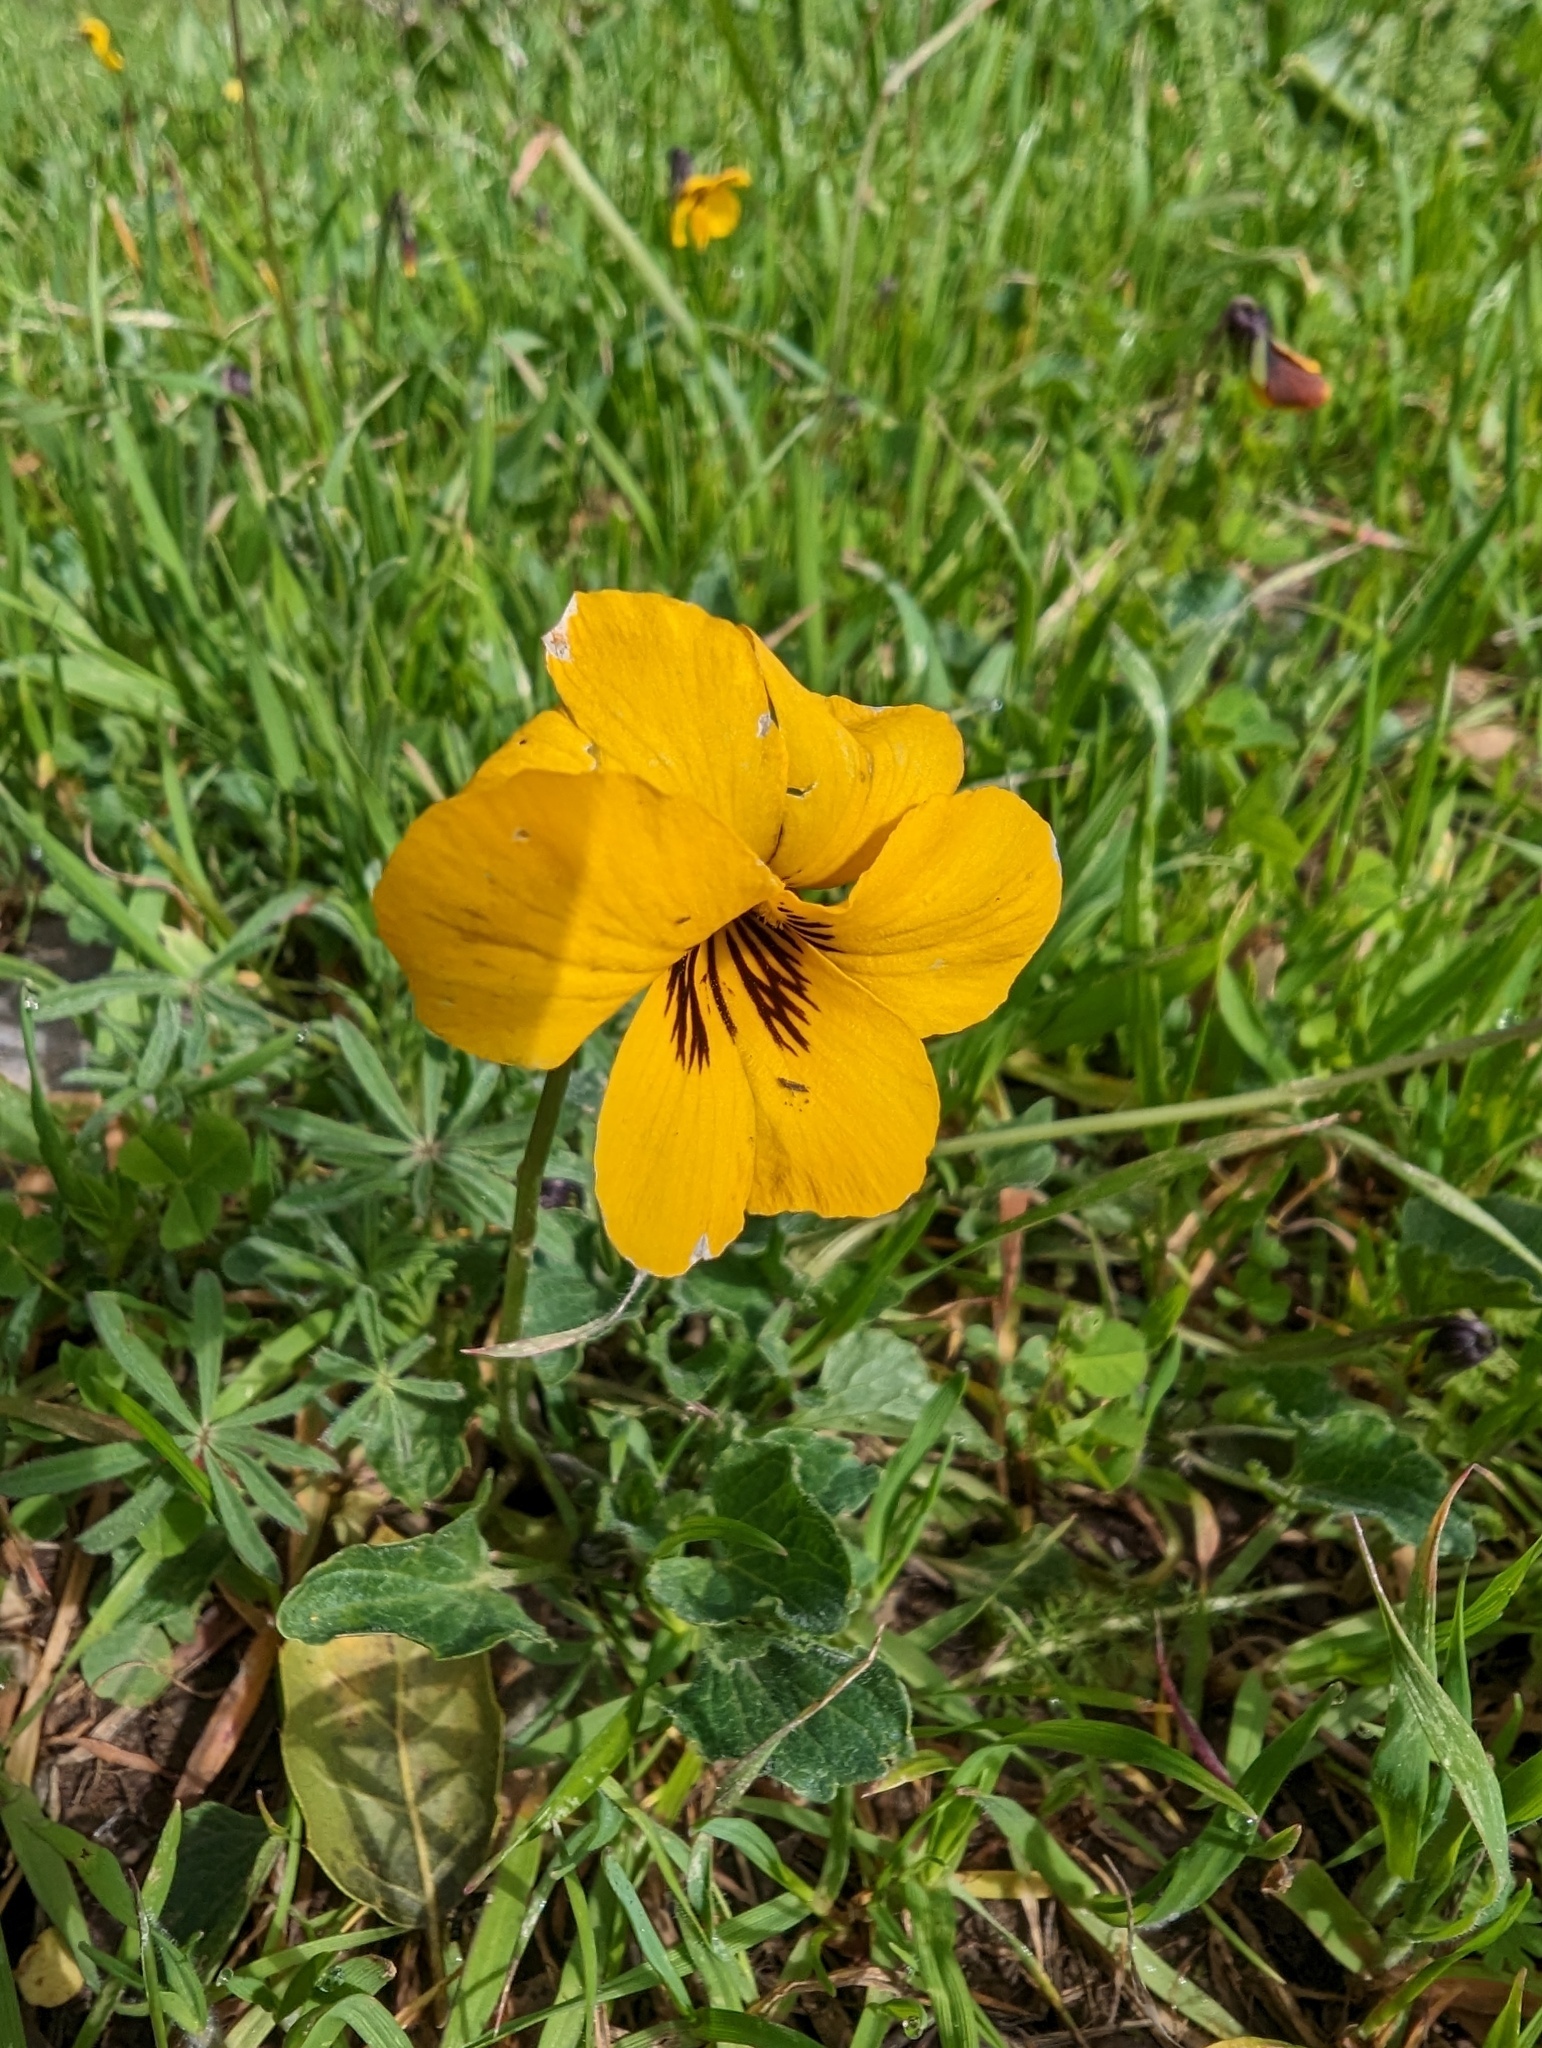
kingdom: Plantae
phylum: Tracheophyta
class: Magnoliopsida
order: Malpighiales
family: Violaceae
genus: Viola
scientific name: Viola pedunculata
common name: California golden violet
